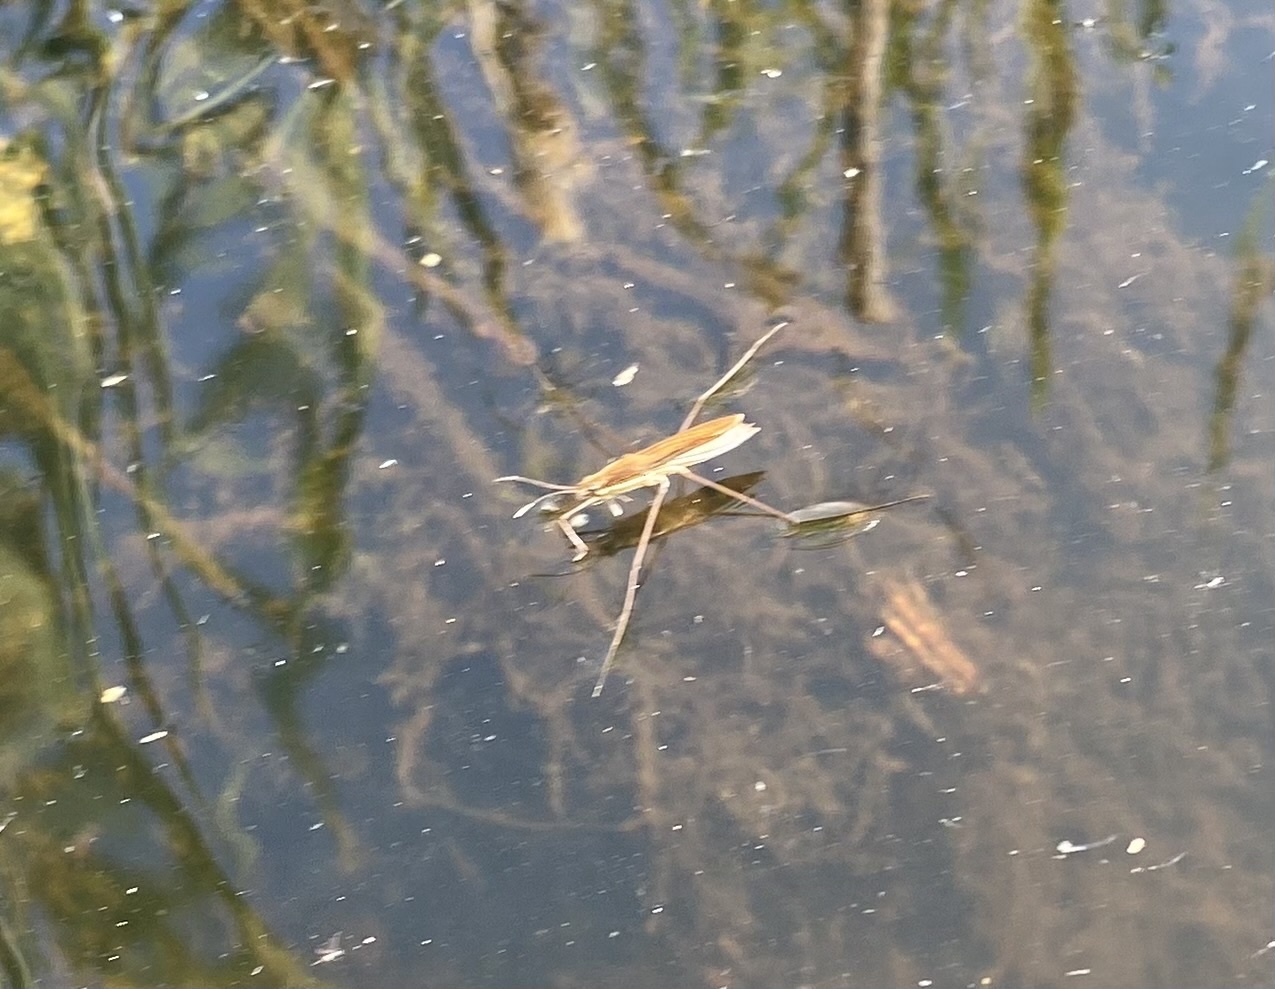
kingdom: Animalia
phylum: Arthropoda
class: Insecta
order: Hemiptera
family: Gerridae
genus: Limnoporus
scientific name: Limnoporus dissortis
